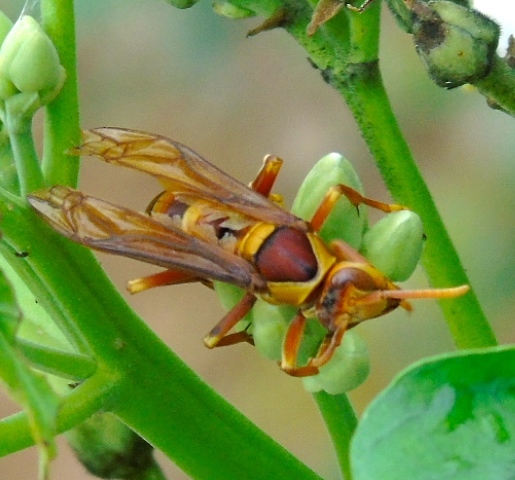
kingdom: Animalia
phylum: Arthropoda
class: Insecta
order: Hymenoptera
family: Eumenidae
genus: Polistes
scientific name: Polistes carnifex
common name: Paper wasp
